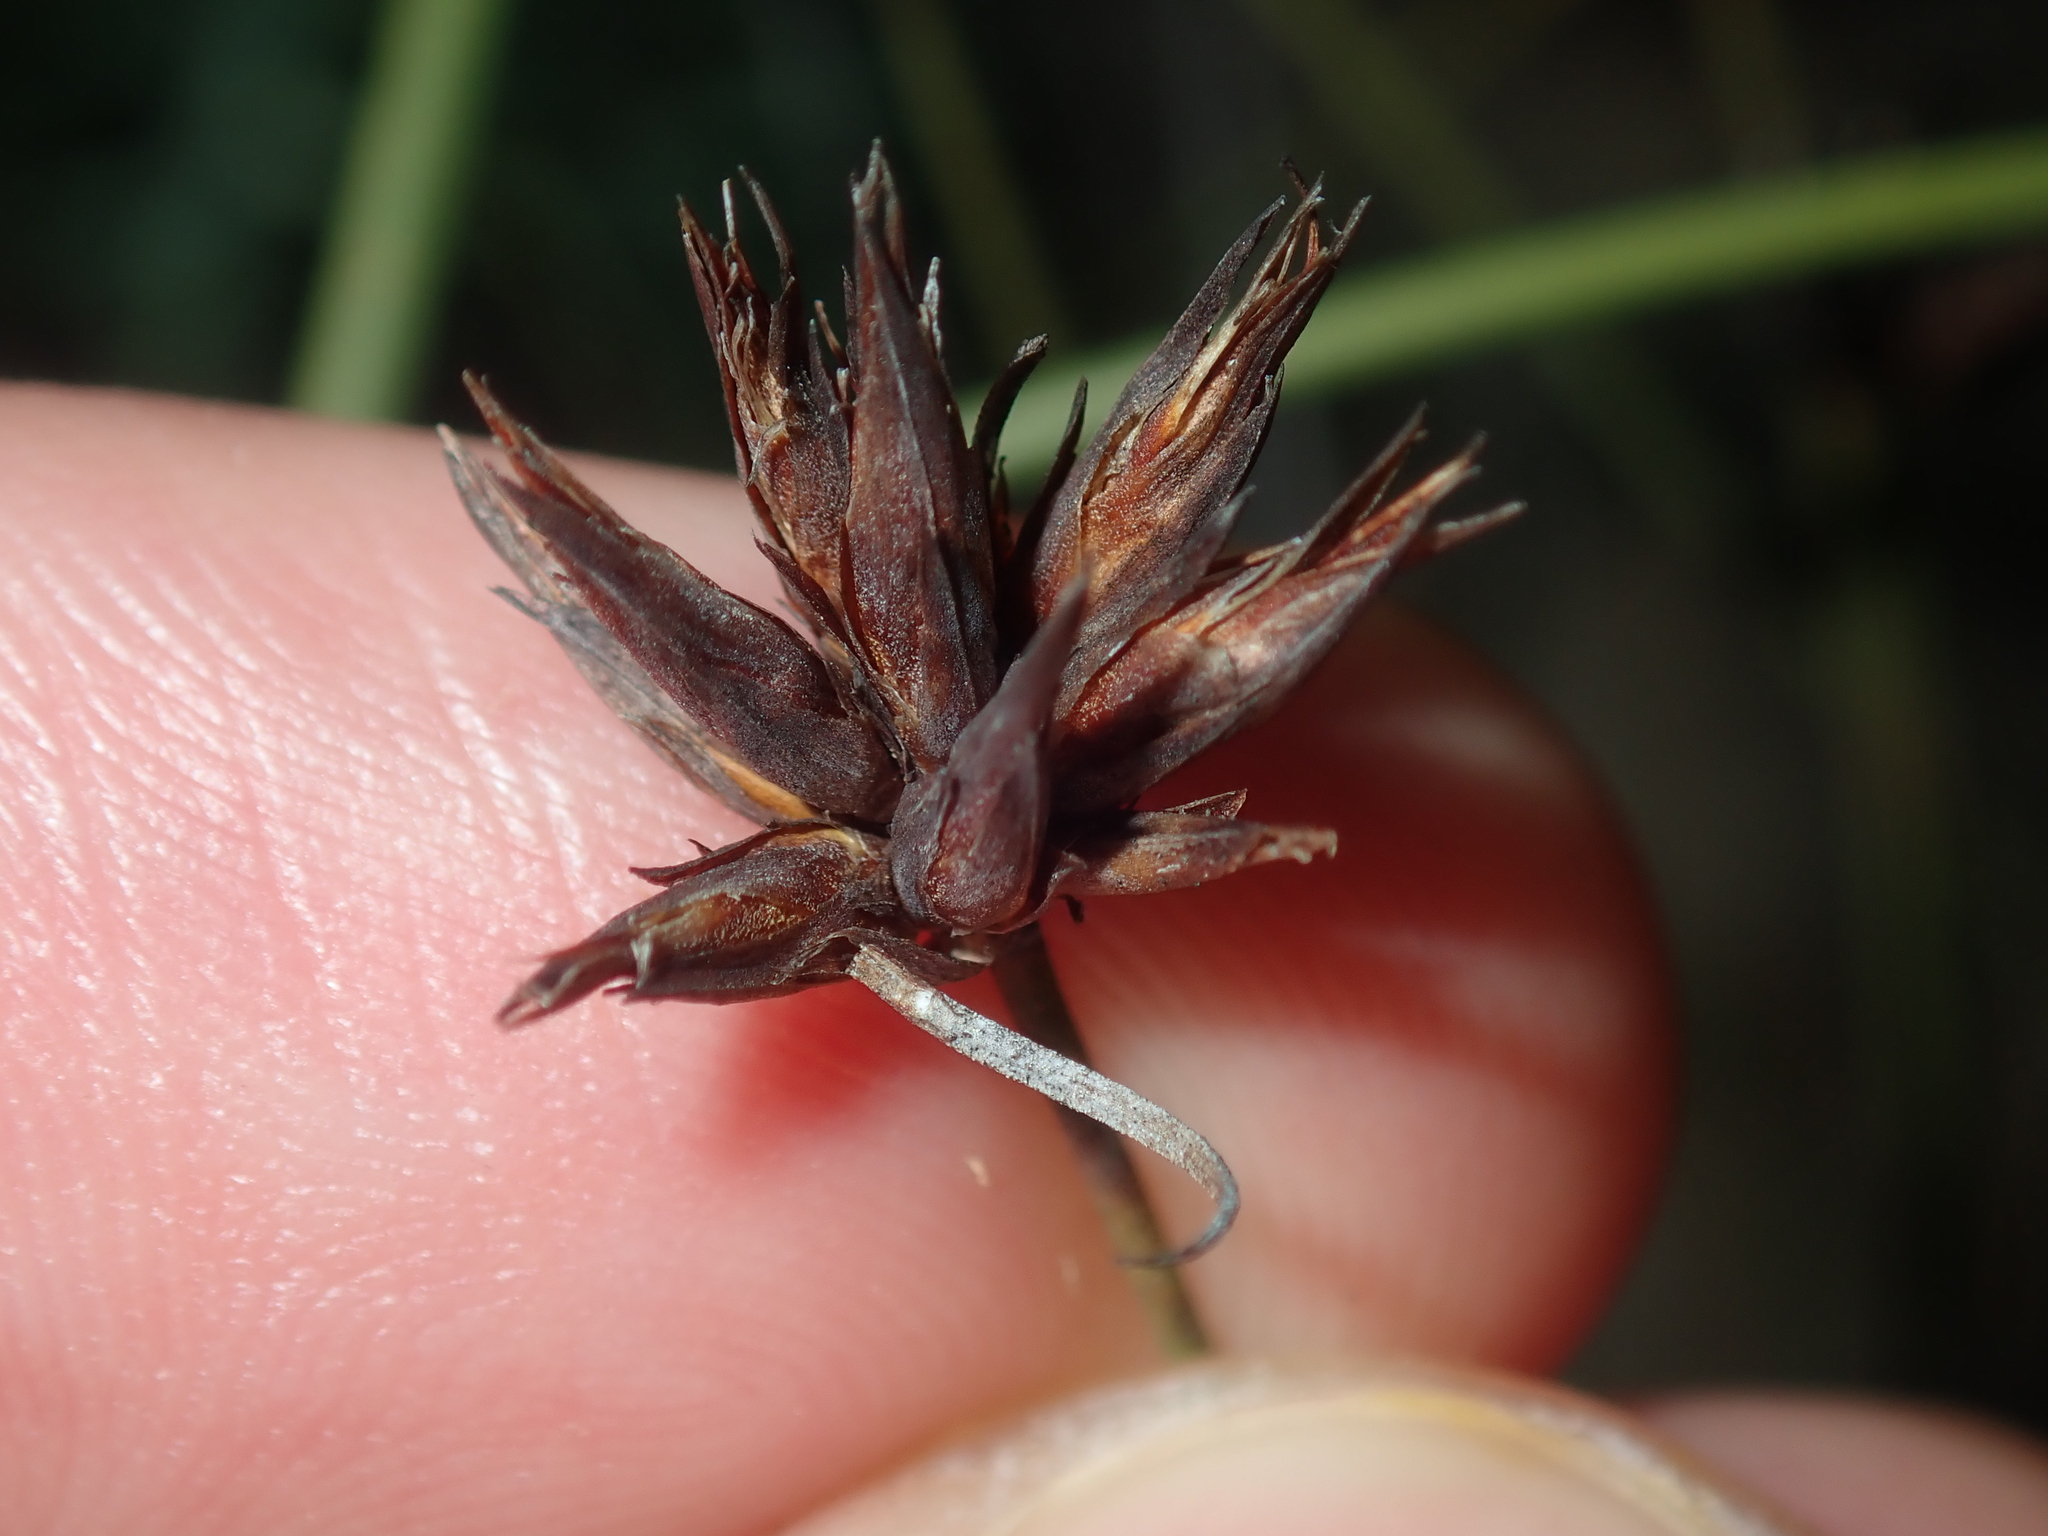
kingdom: Plantae
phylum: Tracheophyta
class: Liliopsida
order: Poales
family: Cyperaceae
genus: Schoenus
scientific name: Schoenus armeria
